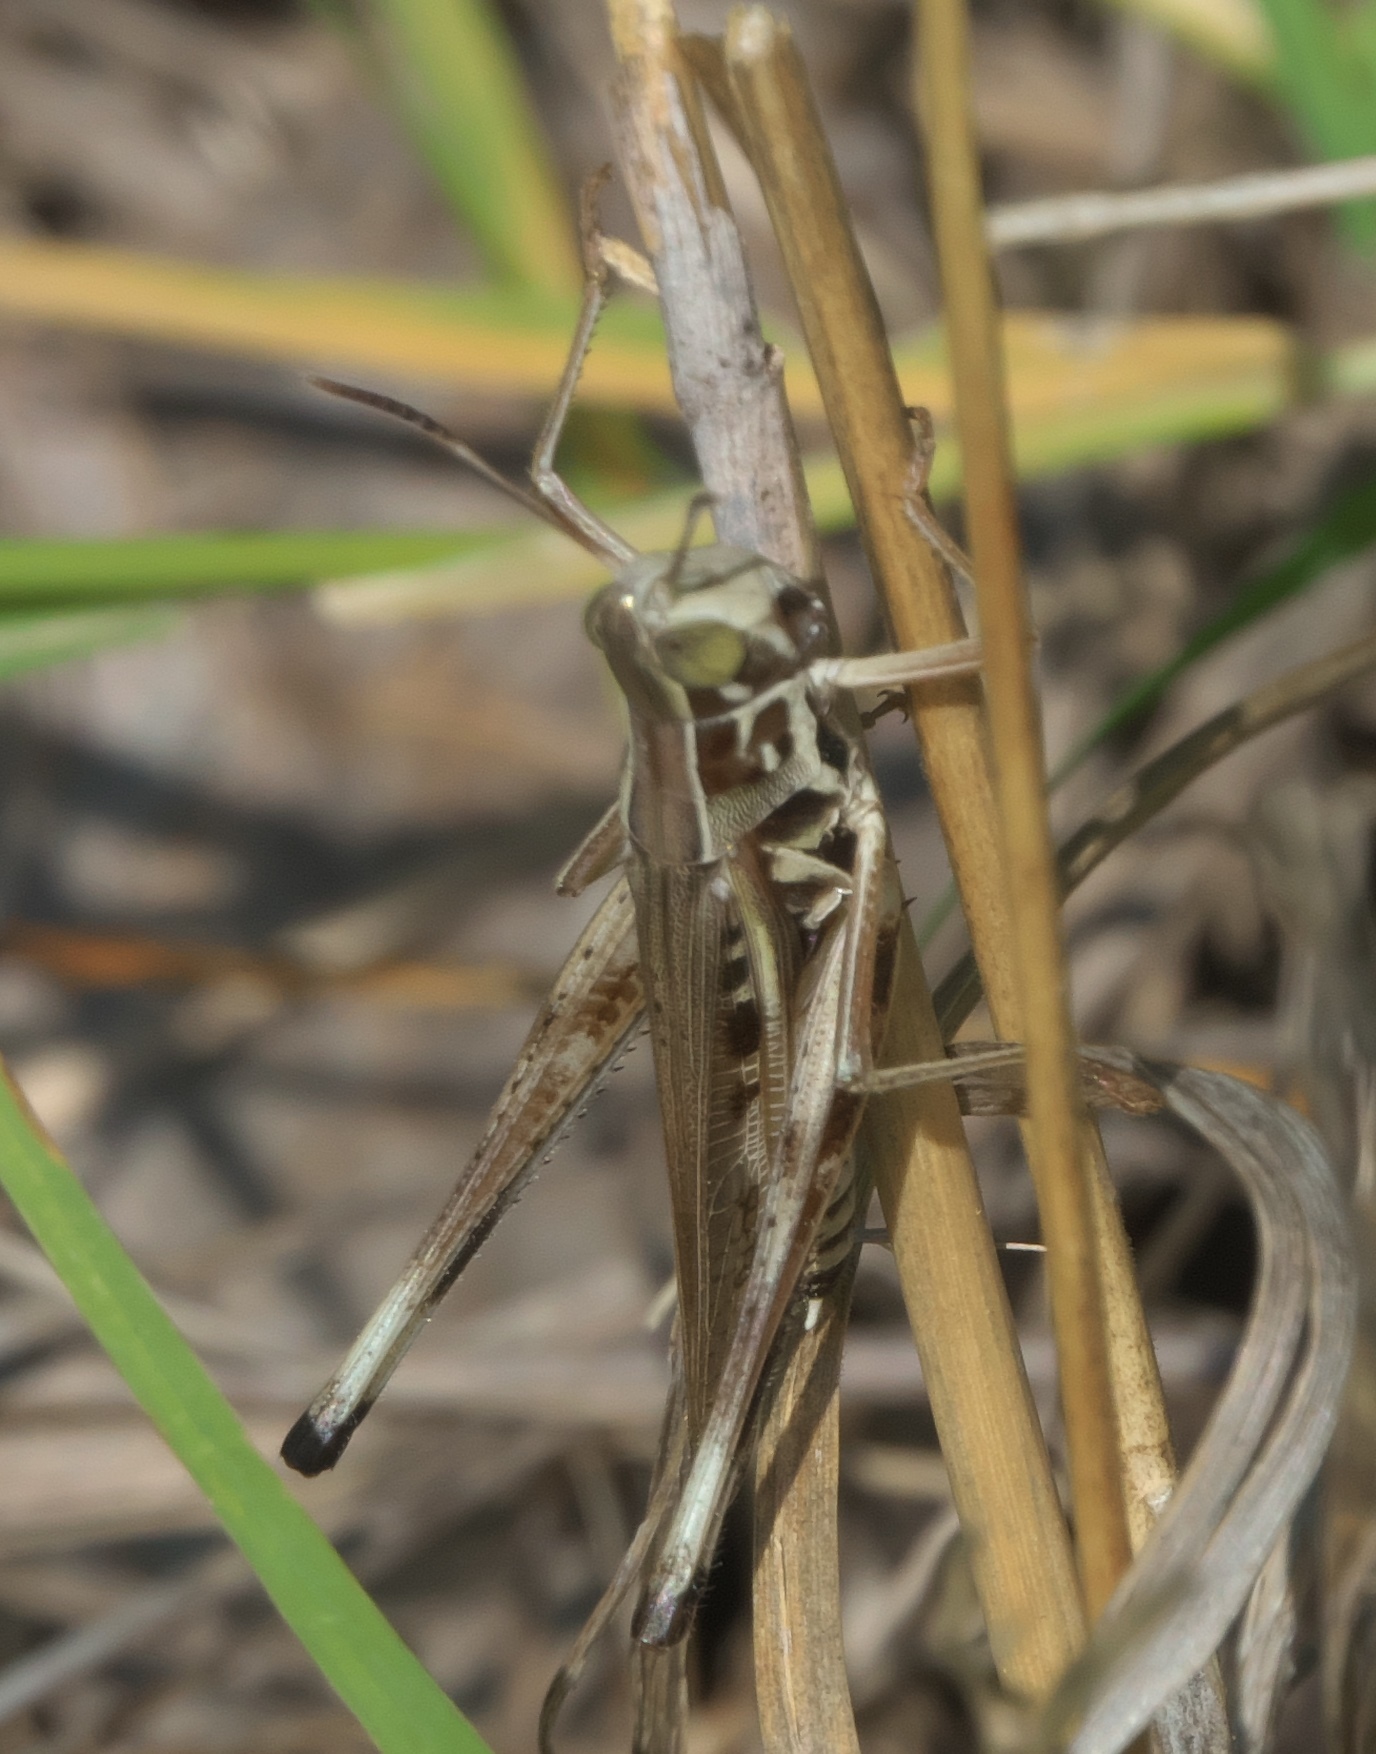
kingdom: Animalia
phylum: Arthropoda
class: Insecta
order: Orthoptera
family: Acrididae
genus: Syrbula
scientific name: Syrbula admirabilis
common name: Handsome grasshopper
